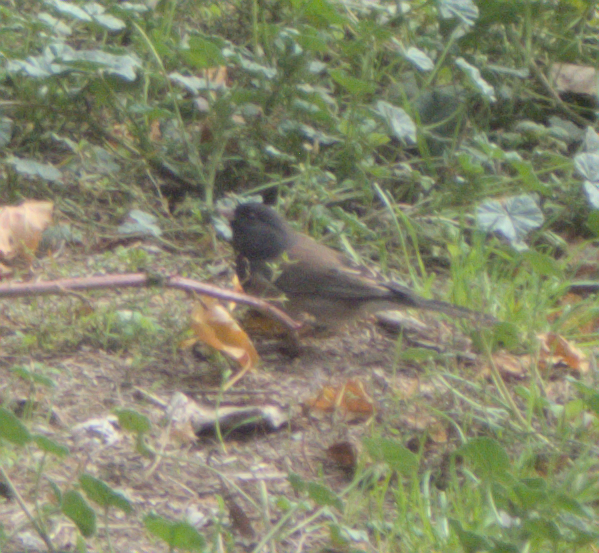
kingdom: Animalia
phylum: Chordata
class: Aves
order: Passeriformes
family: Passerellidae
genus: Junco
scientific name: Junco hyemalis
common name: Dark-eyed junco
